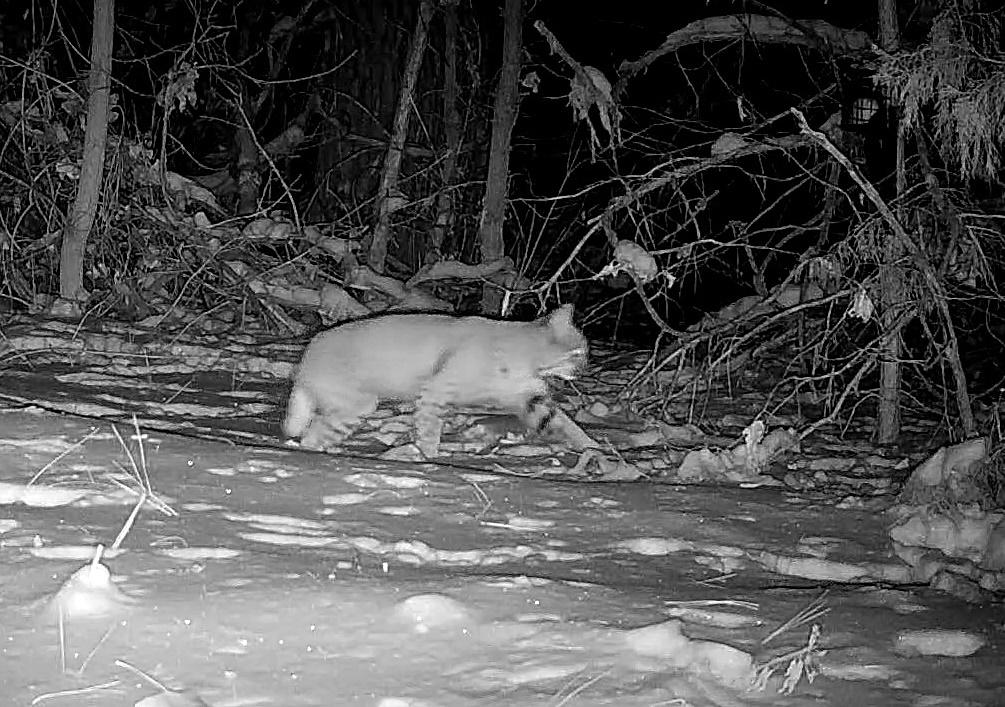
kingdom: Animalia
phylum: Chordata
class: Mammalia
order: Carnivora
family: Felidae
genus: Lynx
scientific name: Lynx rufus
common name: Bobcat
